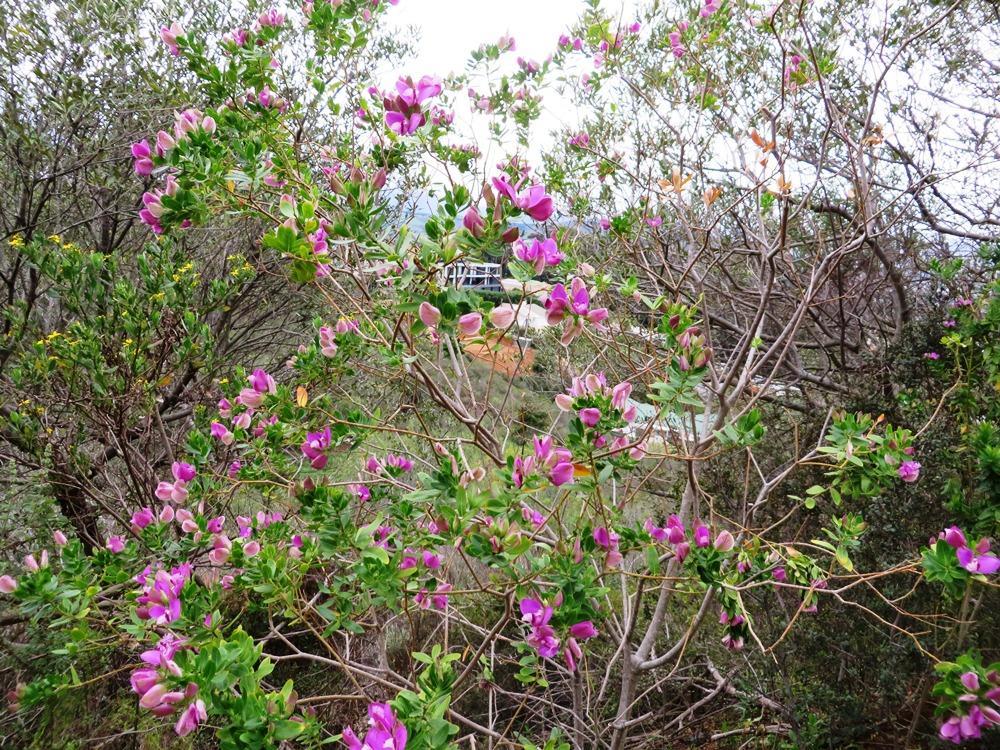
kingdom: Plantae
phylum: Tracheophyta
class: Magnoliopsida
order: Fabales
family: Polygalaceae
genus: Polygala
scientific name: Polygala myrtifolia
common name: Myrtle-leaf milkwort
